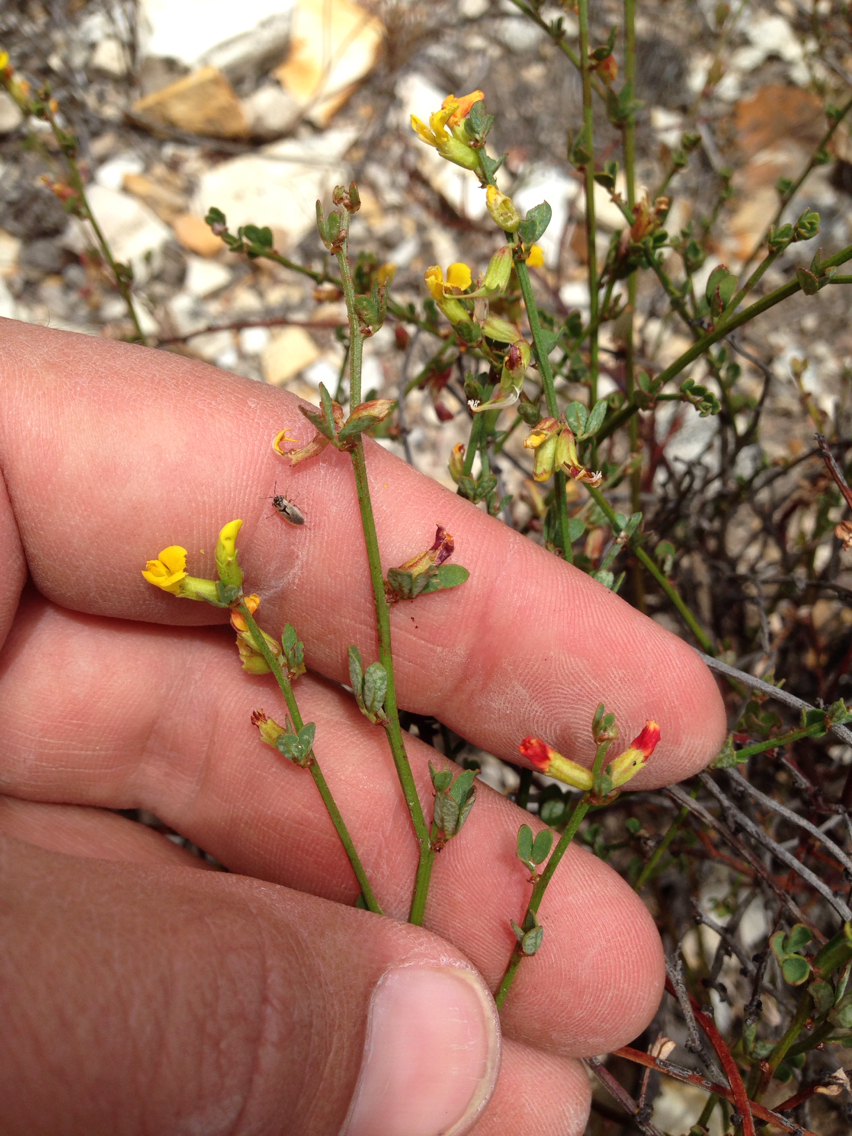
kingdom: Plantae
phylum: Tracheophyta
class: Magnoliopsida
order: Fabales
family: Fabaceae
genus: Acmispon
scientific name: Acmispon glaber
